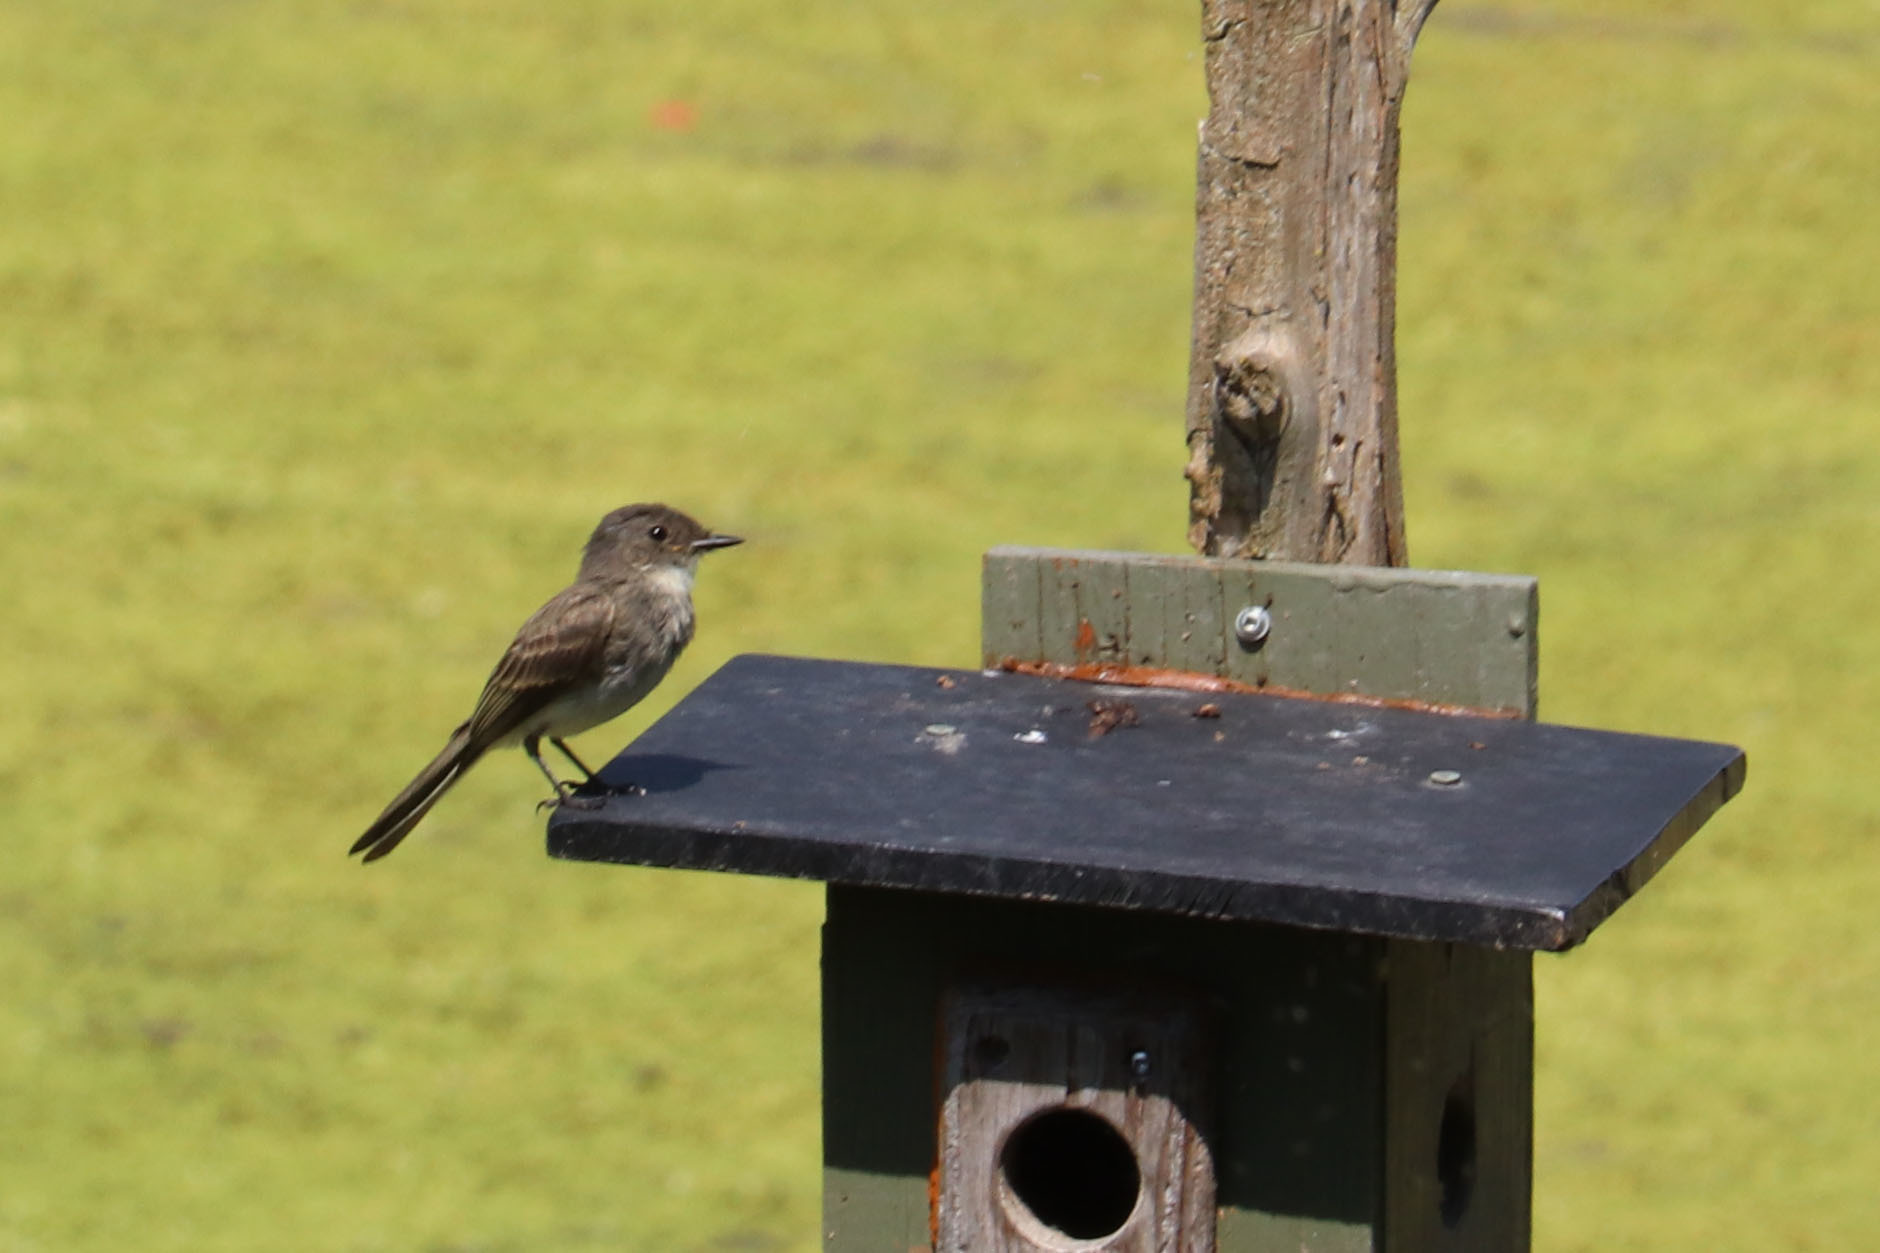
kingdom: Animalia
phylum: Chordata
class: Aves
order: Passeriformes
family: Tyrannidae
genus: Sayornis
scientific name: Sayornis phoebe
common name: Eastern phoebe
